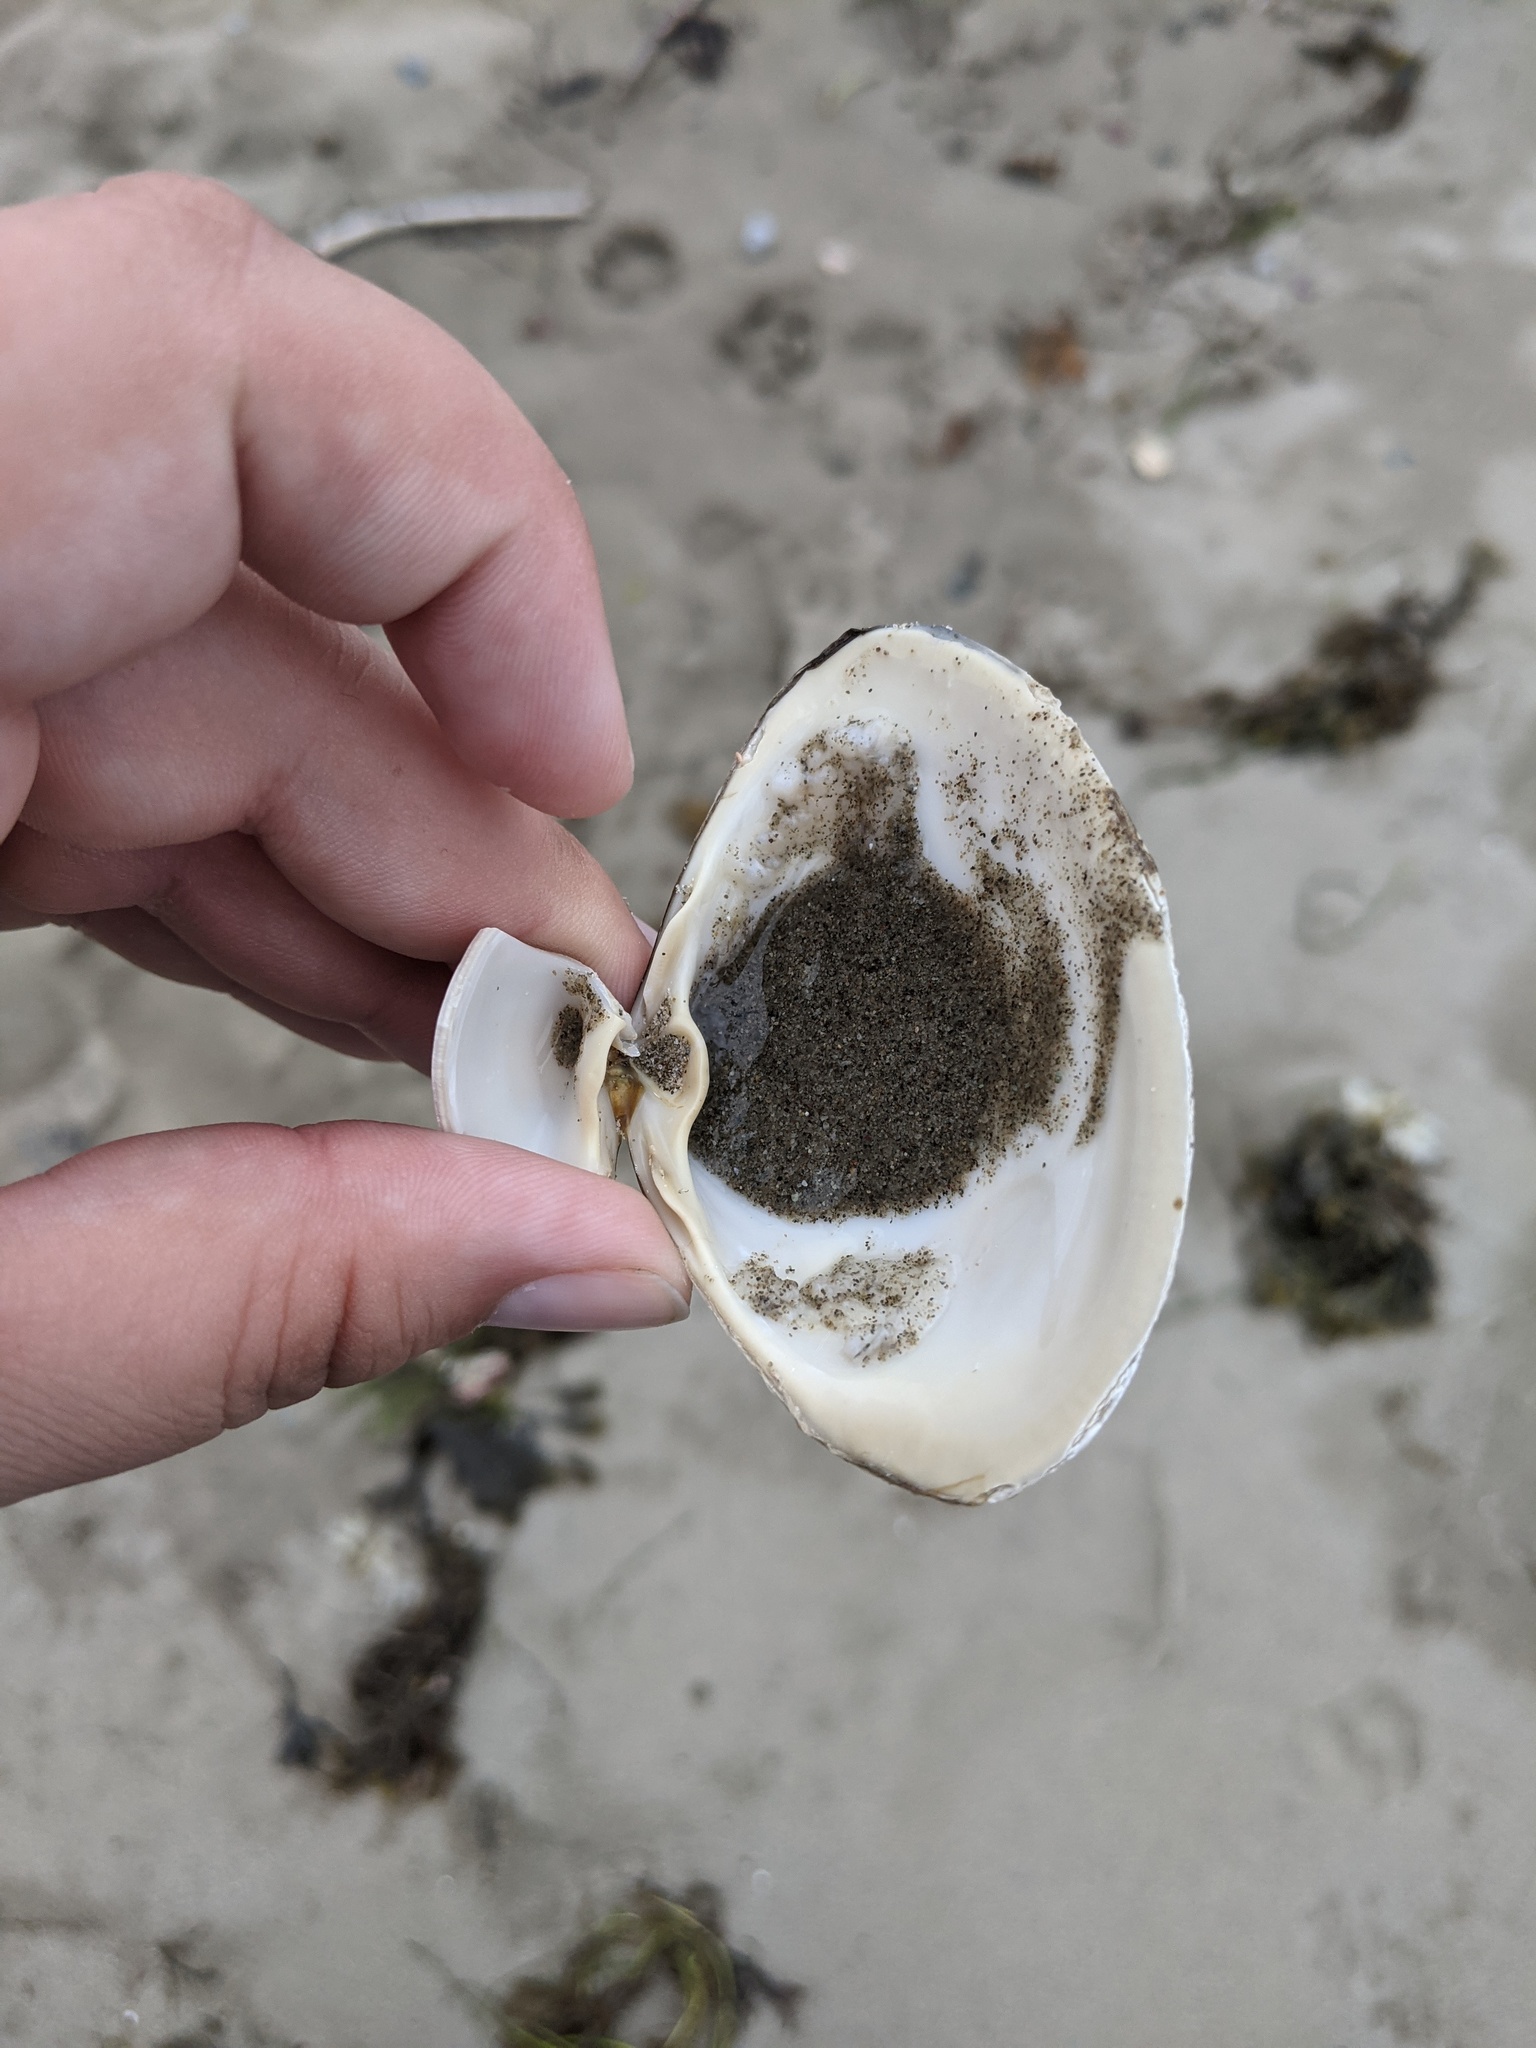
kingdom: Animalia
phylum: Mollusca
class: Bivalvia
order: Venerida
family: Mactridae
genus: Spisula
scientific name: Spisula solidissima
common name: Atlantic surf clam
